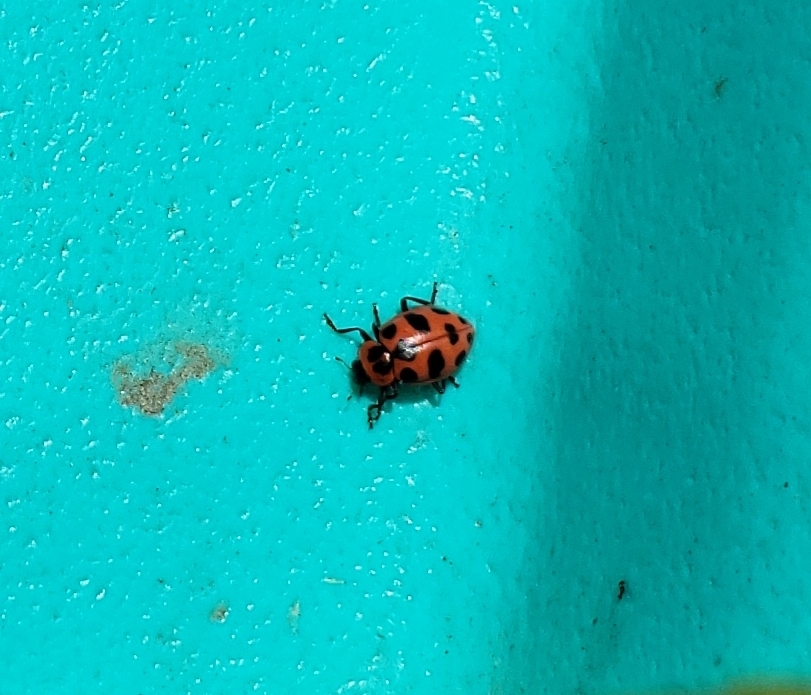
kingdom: Animalia
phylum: Arthropoda
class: Insecta
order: Coleoptera
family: Coccinellidae
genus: Coleomegilla
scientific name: Coleomegilla maculata
